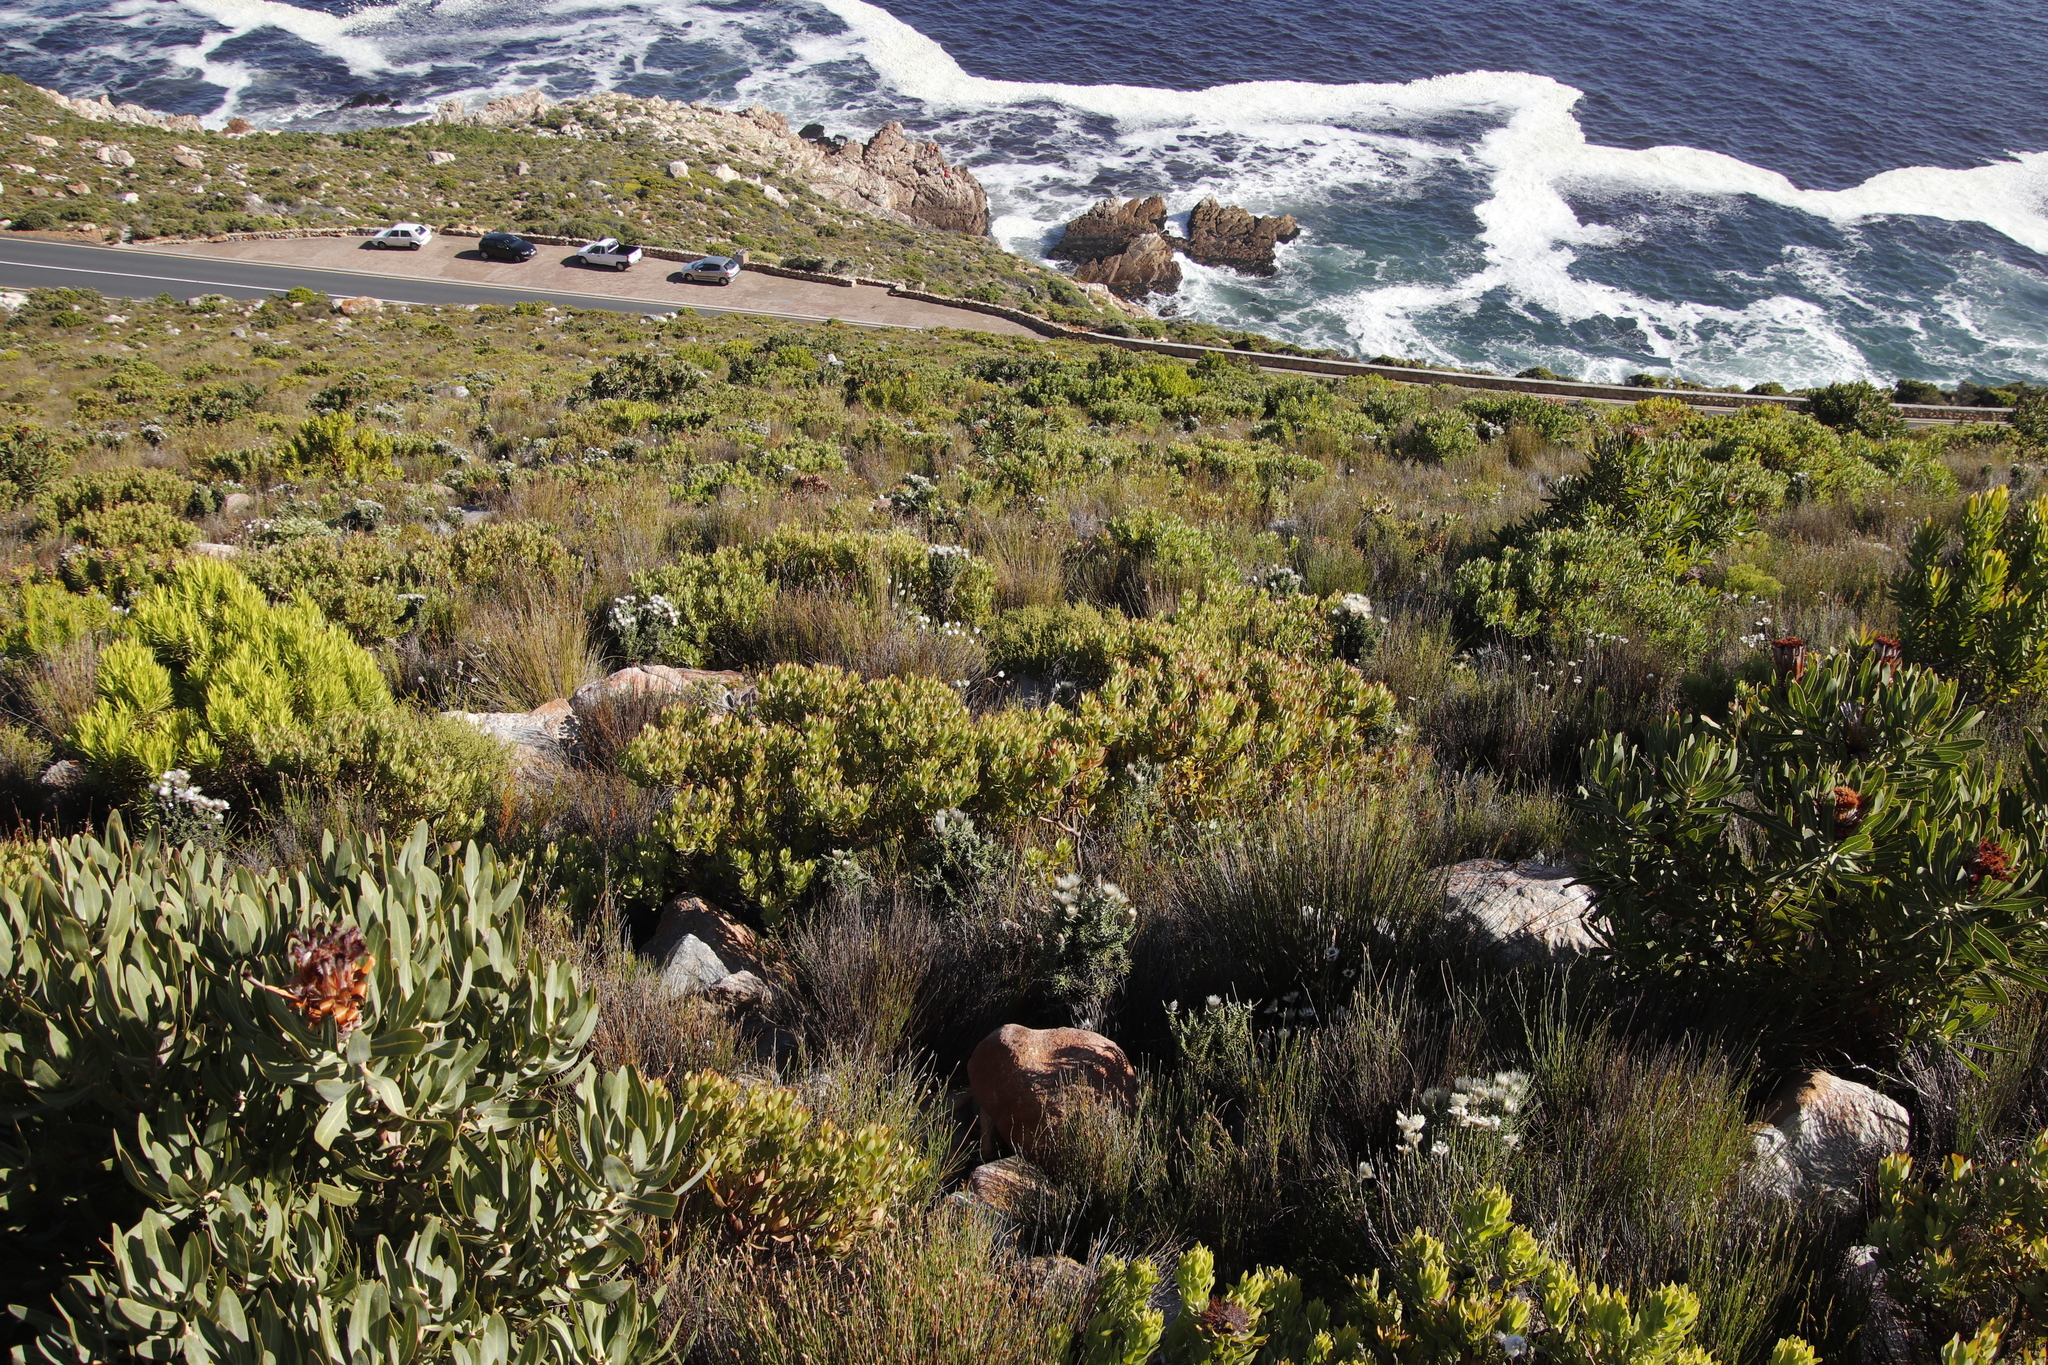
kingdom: Plantae
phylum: Tracheophyta
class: Magnoliopsida
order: Proteales
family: Proteaceae
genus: Leucadendron
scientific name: Leucadendron sessile
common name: Western sunbush
